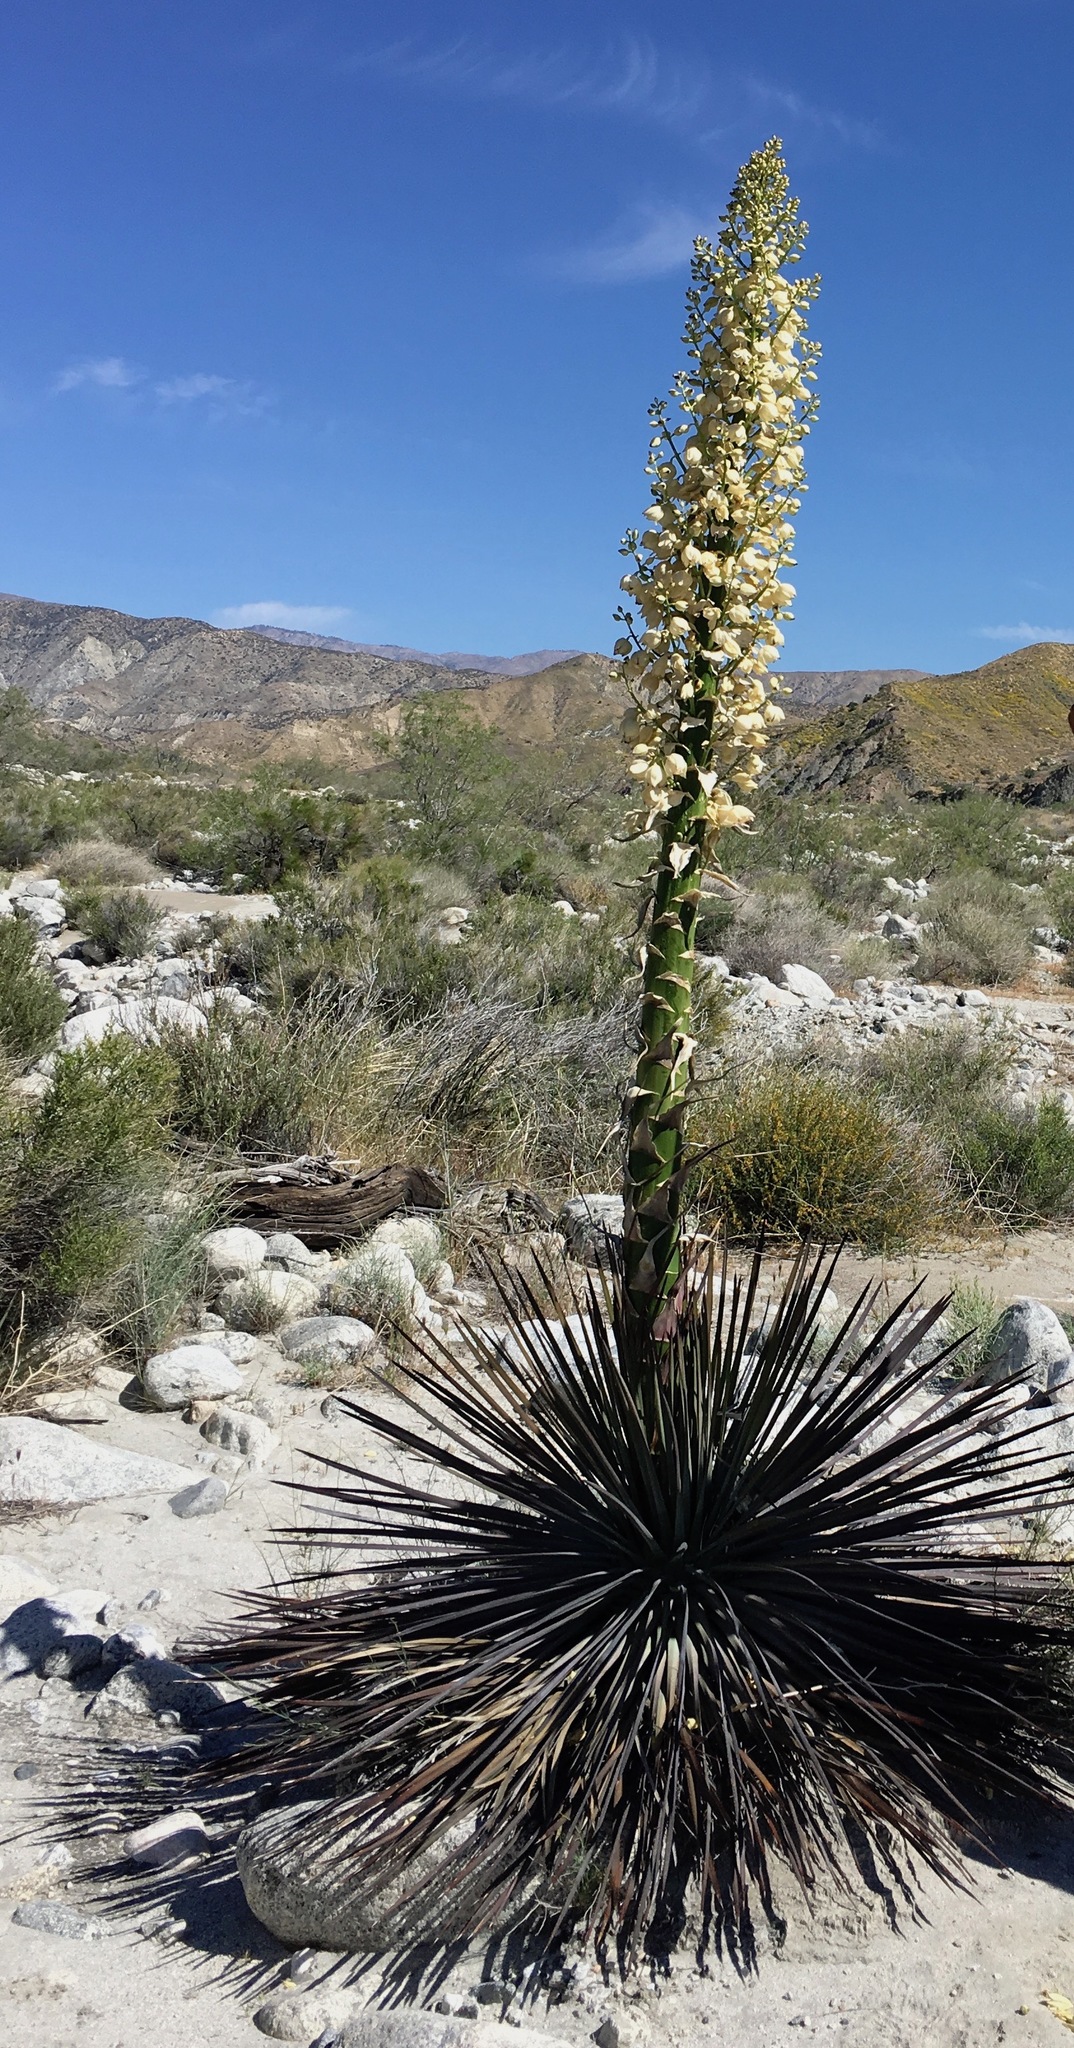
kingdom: Plantae
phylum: Tracheophyta
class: Liliopsida
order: Asparagales
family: Asparagaceae
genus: Hesperoyucca
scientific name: Hesperoyucca whipplei
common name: Our lord's-candle
